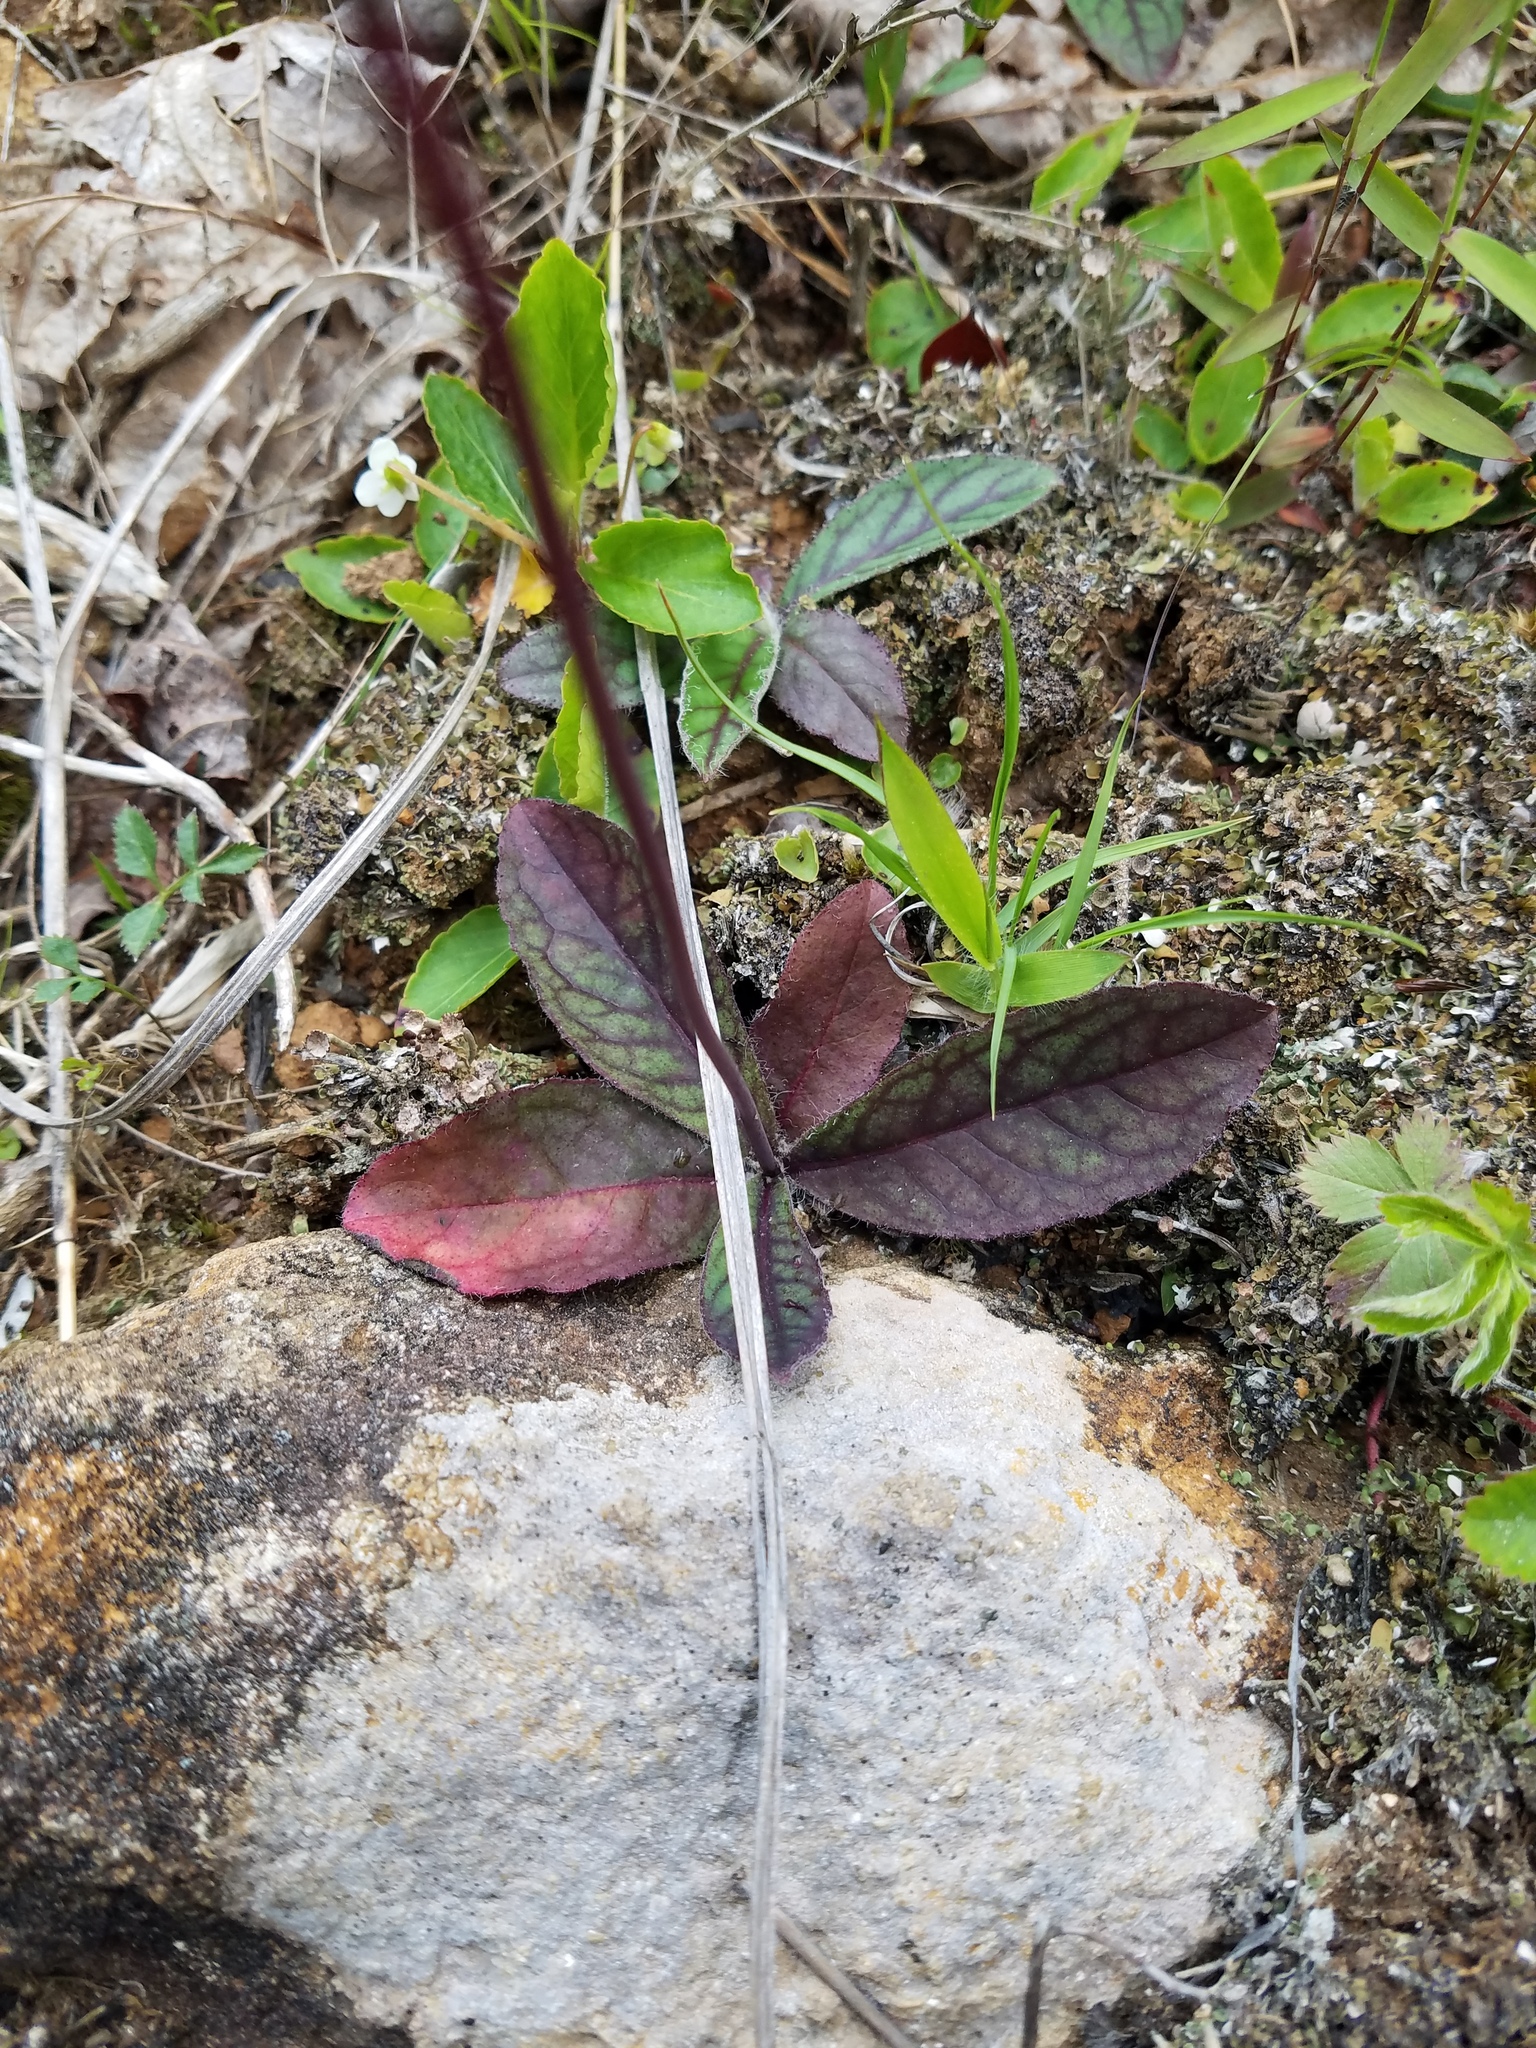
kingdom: Plantae
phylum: Tracheophyta
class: Magnoliopsida
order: Asterales
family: Asteraceae
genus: Hieracium
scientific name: Hieracium venosum
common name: Rattlesnake hawkweed
